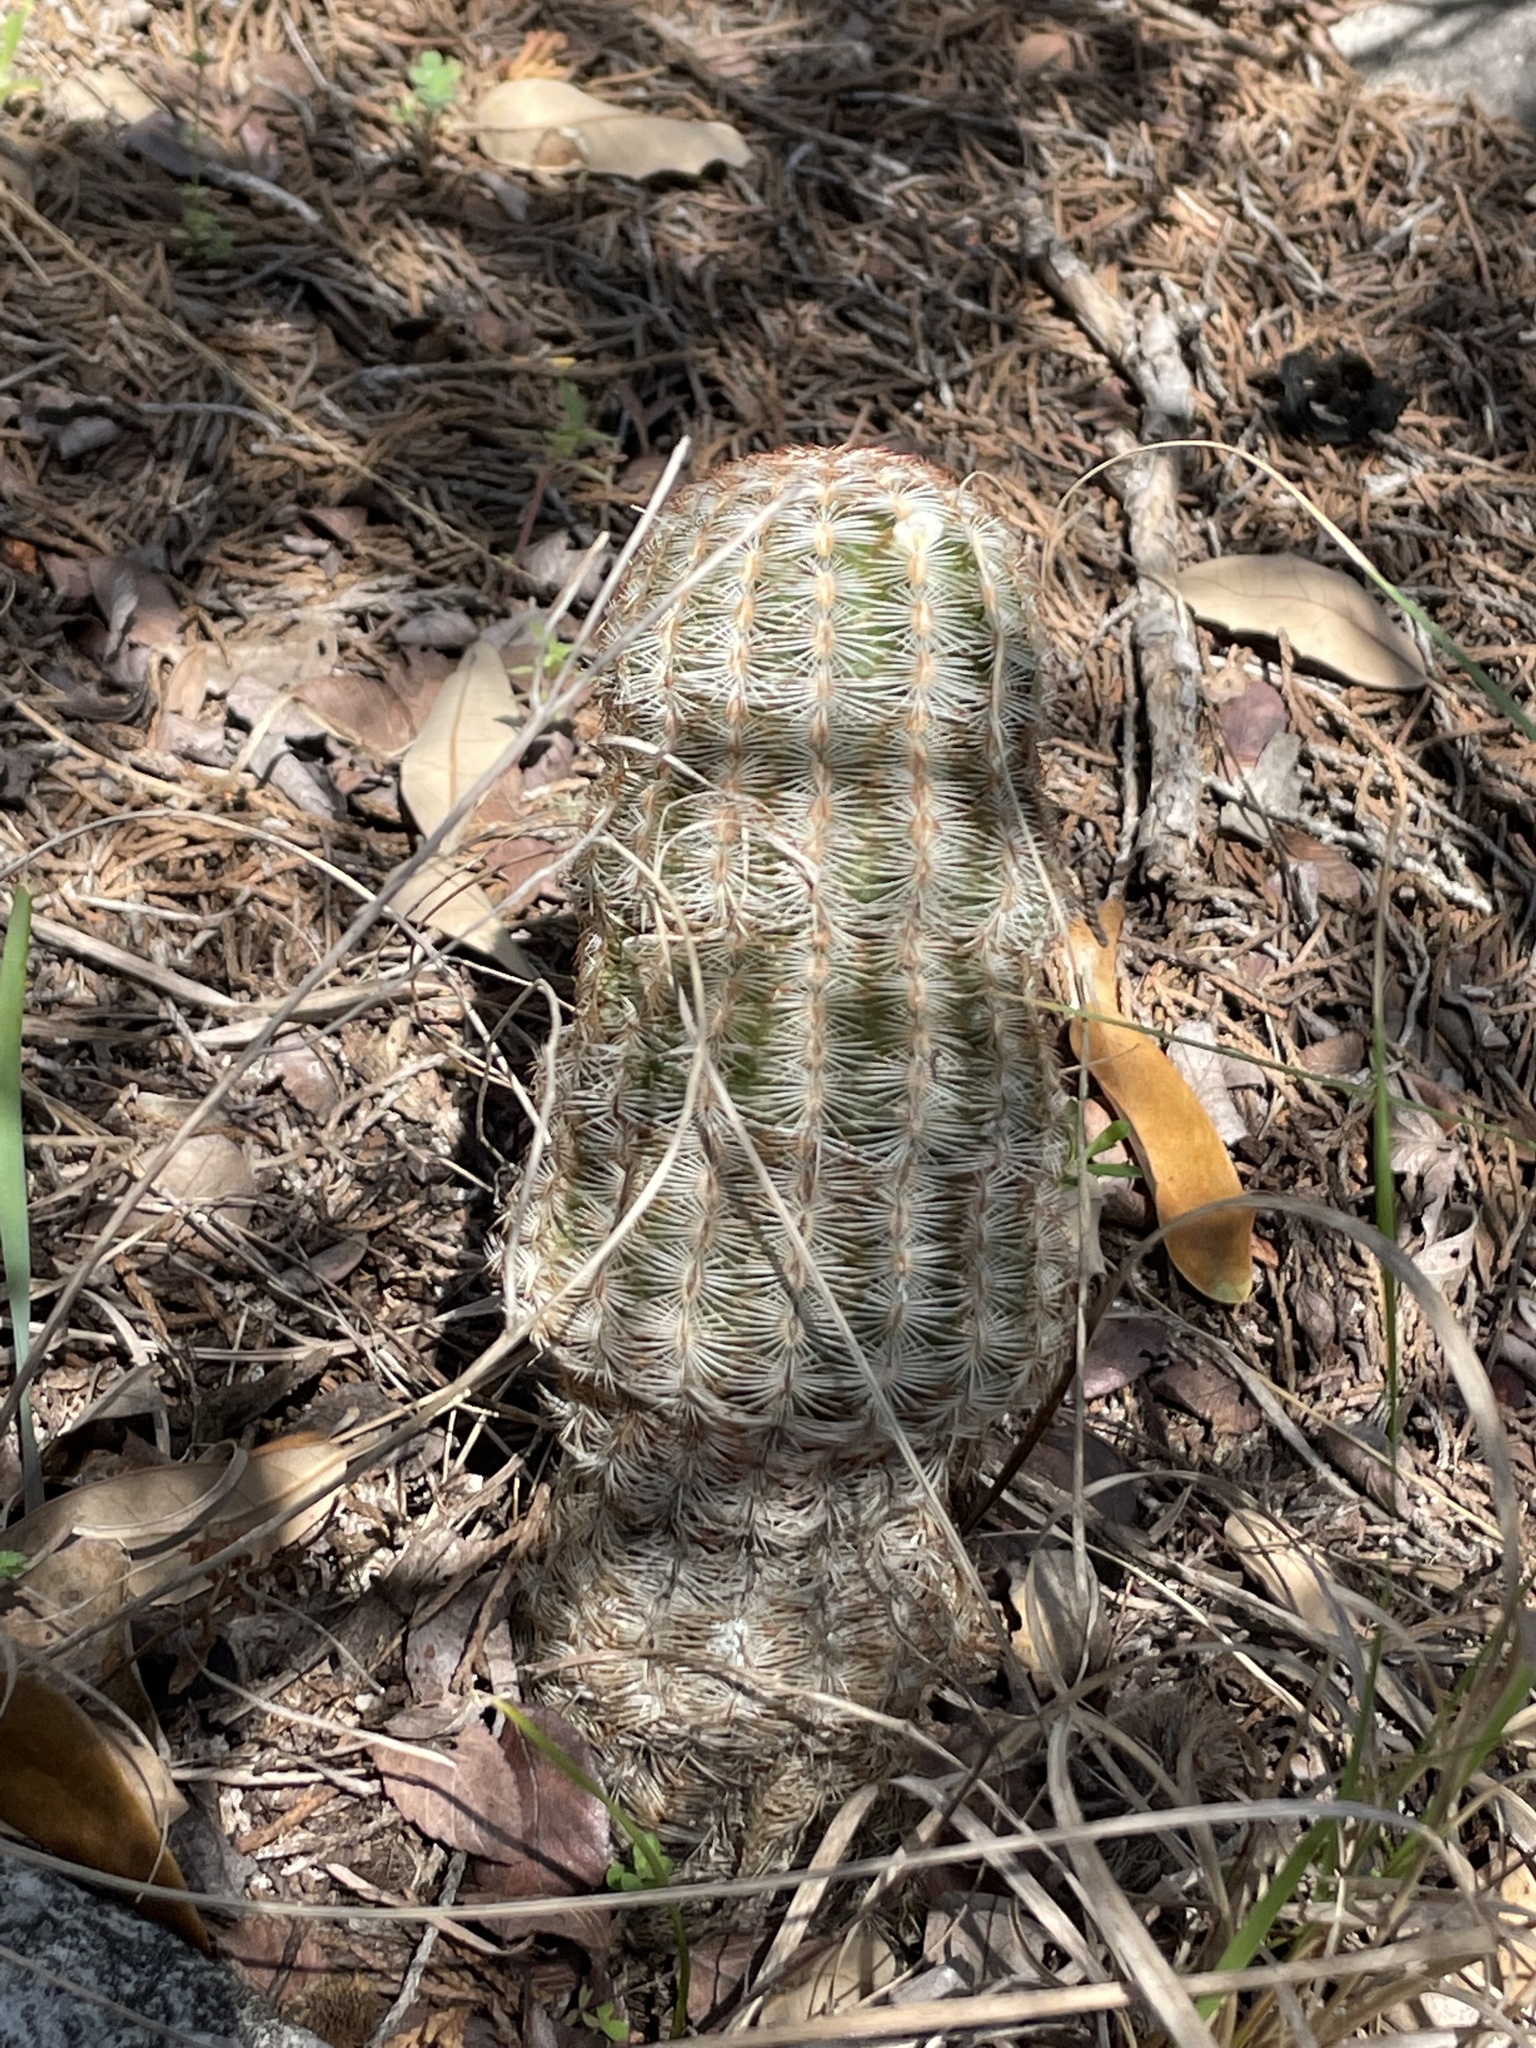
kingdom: Plantae
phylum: Tracheophyta
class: Magnoliopsida
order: Caryophyllales
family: Cactaceae
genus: Echinocereus
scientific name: Echinocereus reichenbachii
